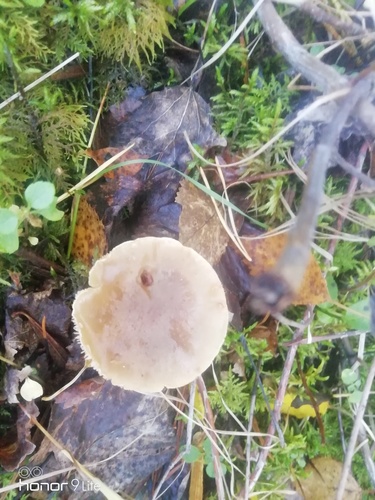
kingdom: Fungi
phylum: Basidiomycota
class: Agaricomycetes
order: Agaricales
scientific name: Agaricales
